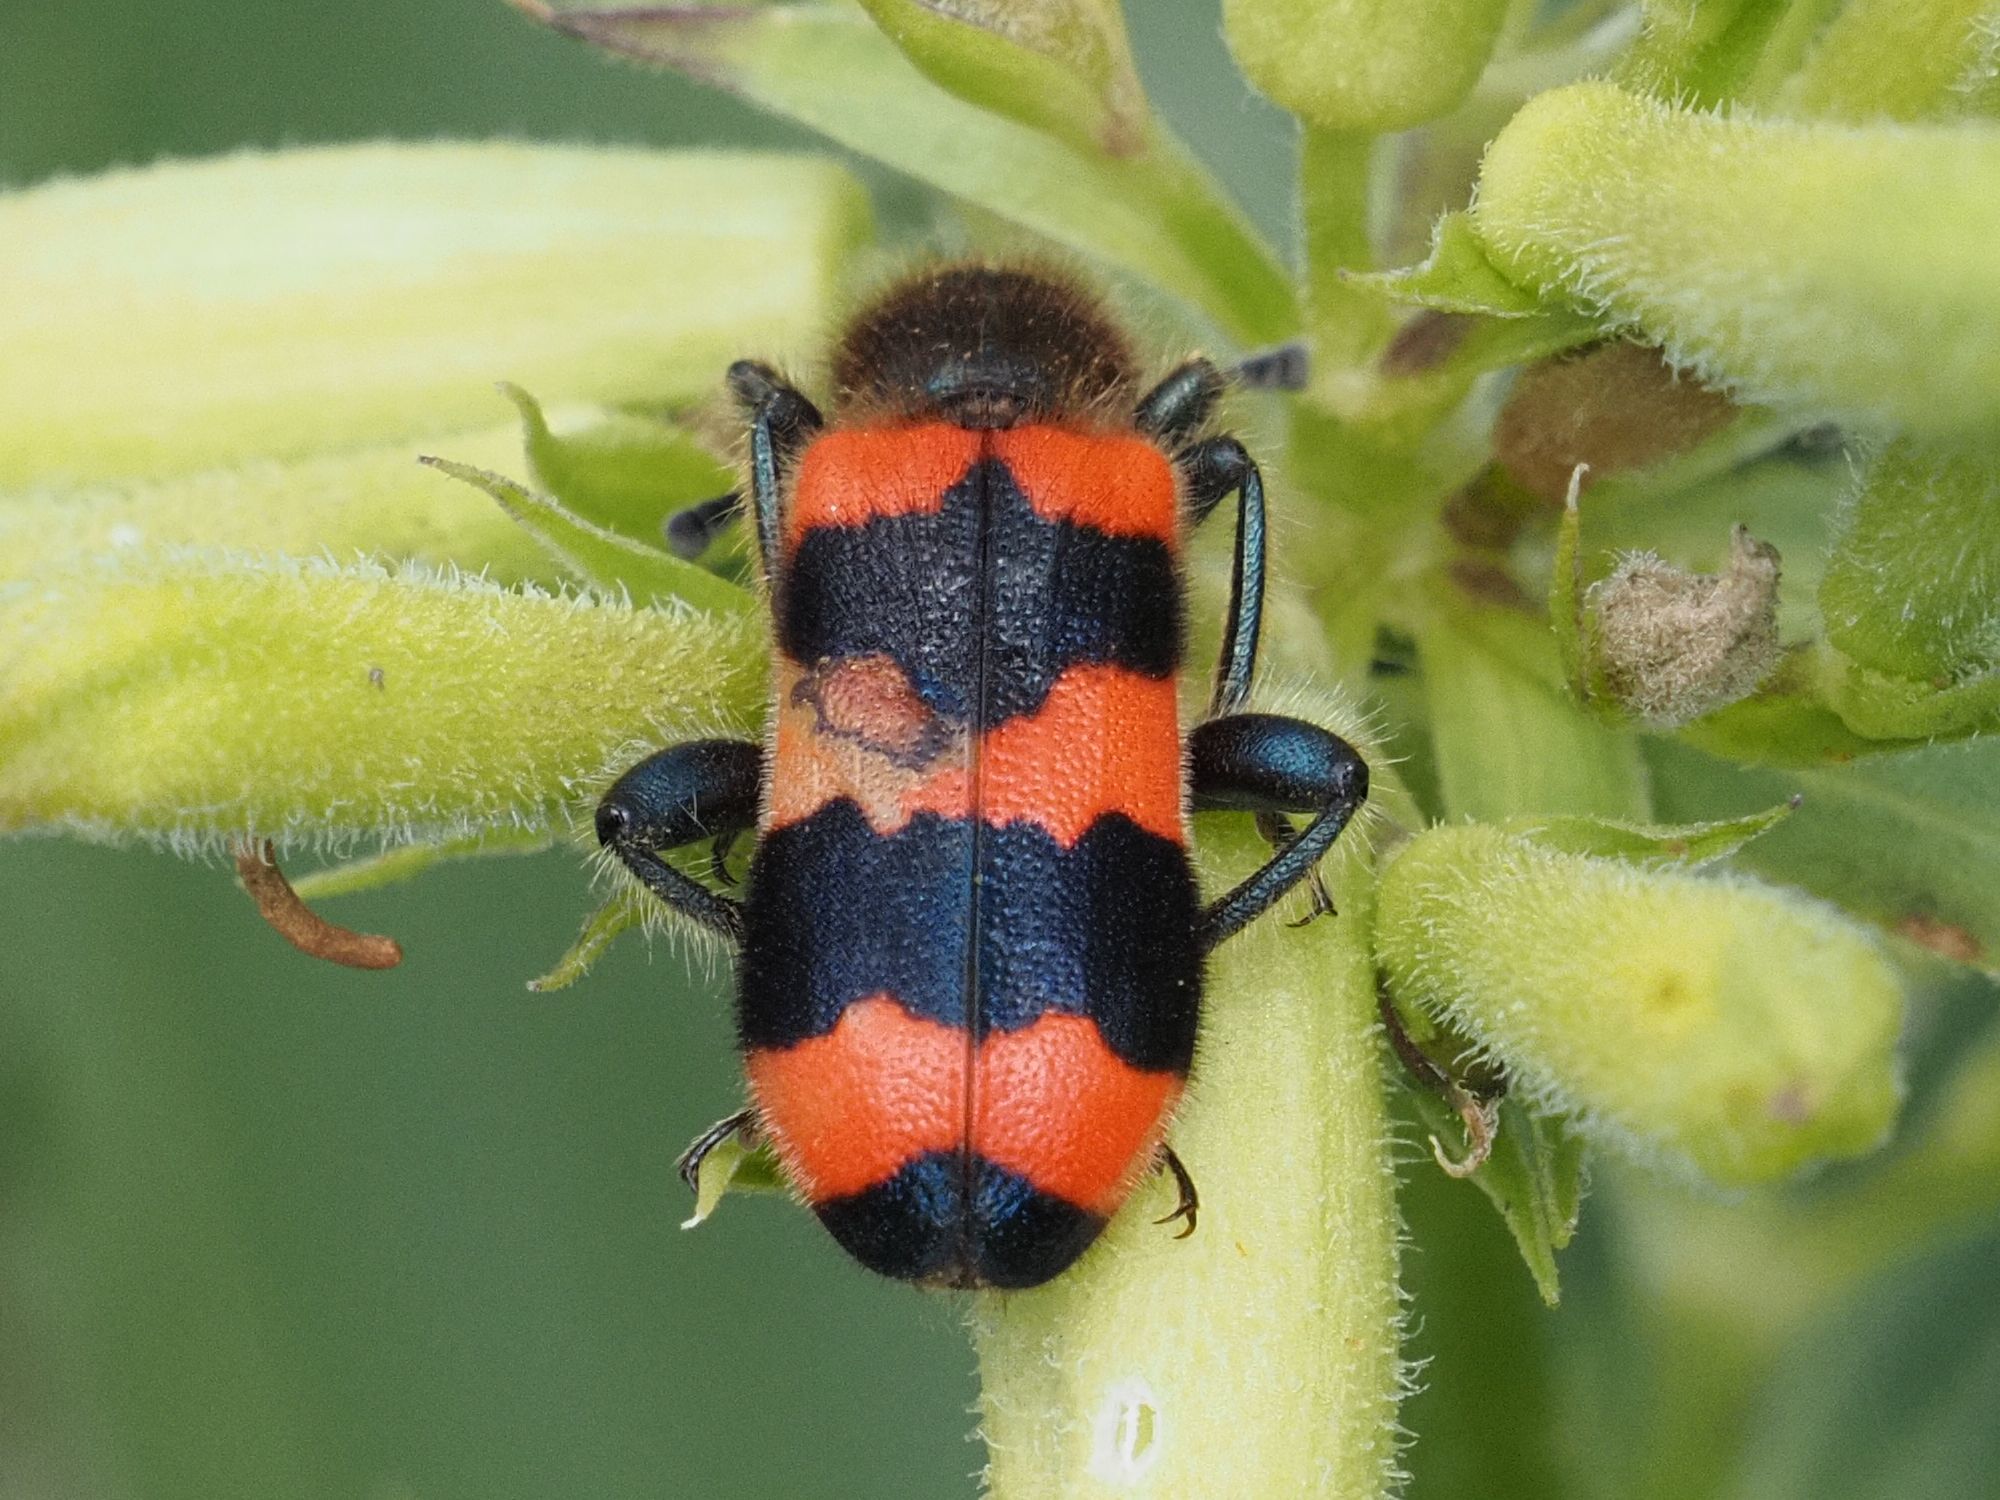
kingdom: Animalia
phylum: Arthropoda
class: Insecta
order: Coleoptera
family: Cleridae
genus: Trichodes
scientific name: Trichodes apiarius
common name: Bee-eating beetle
